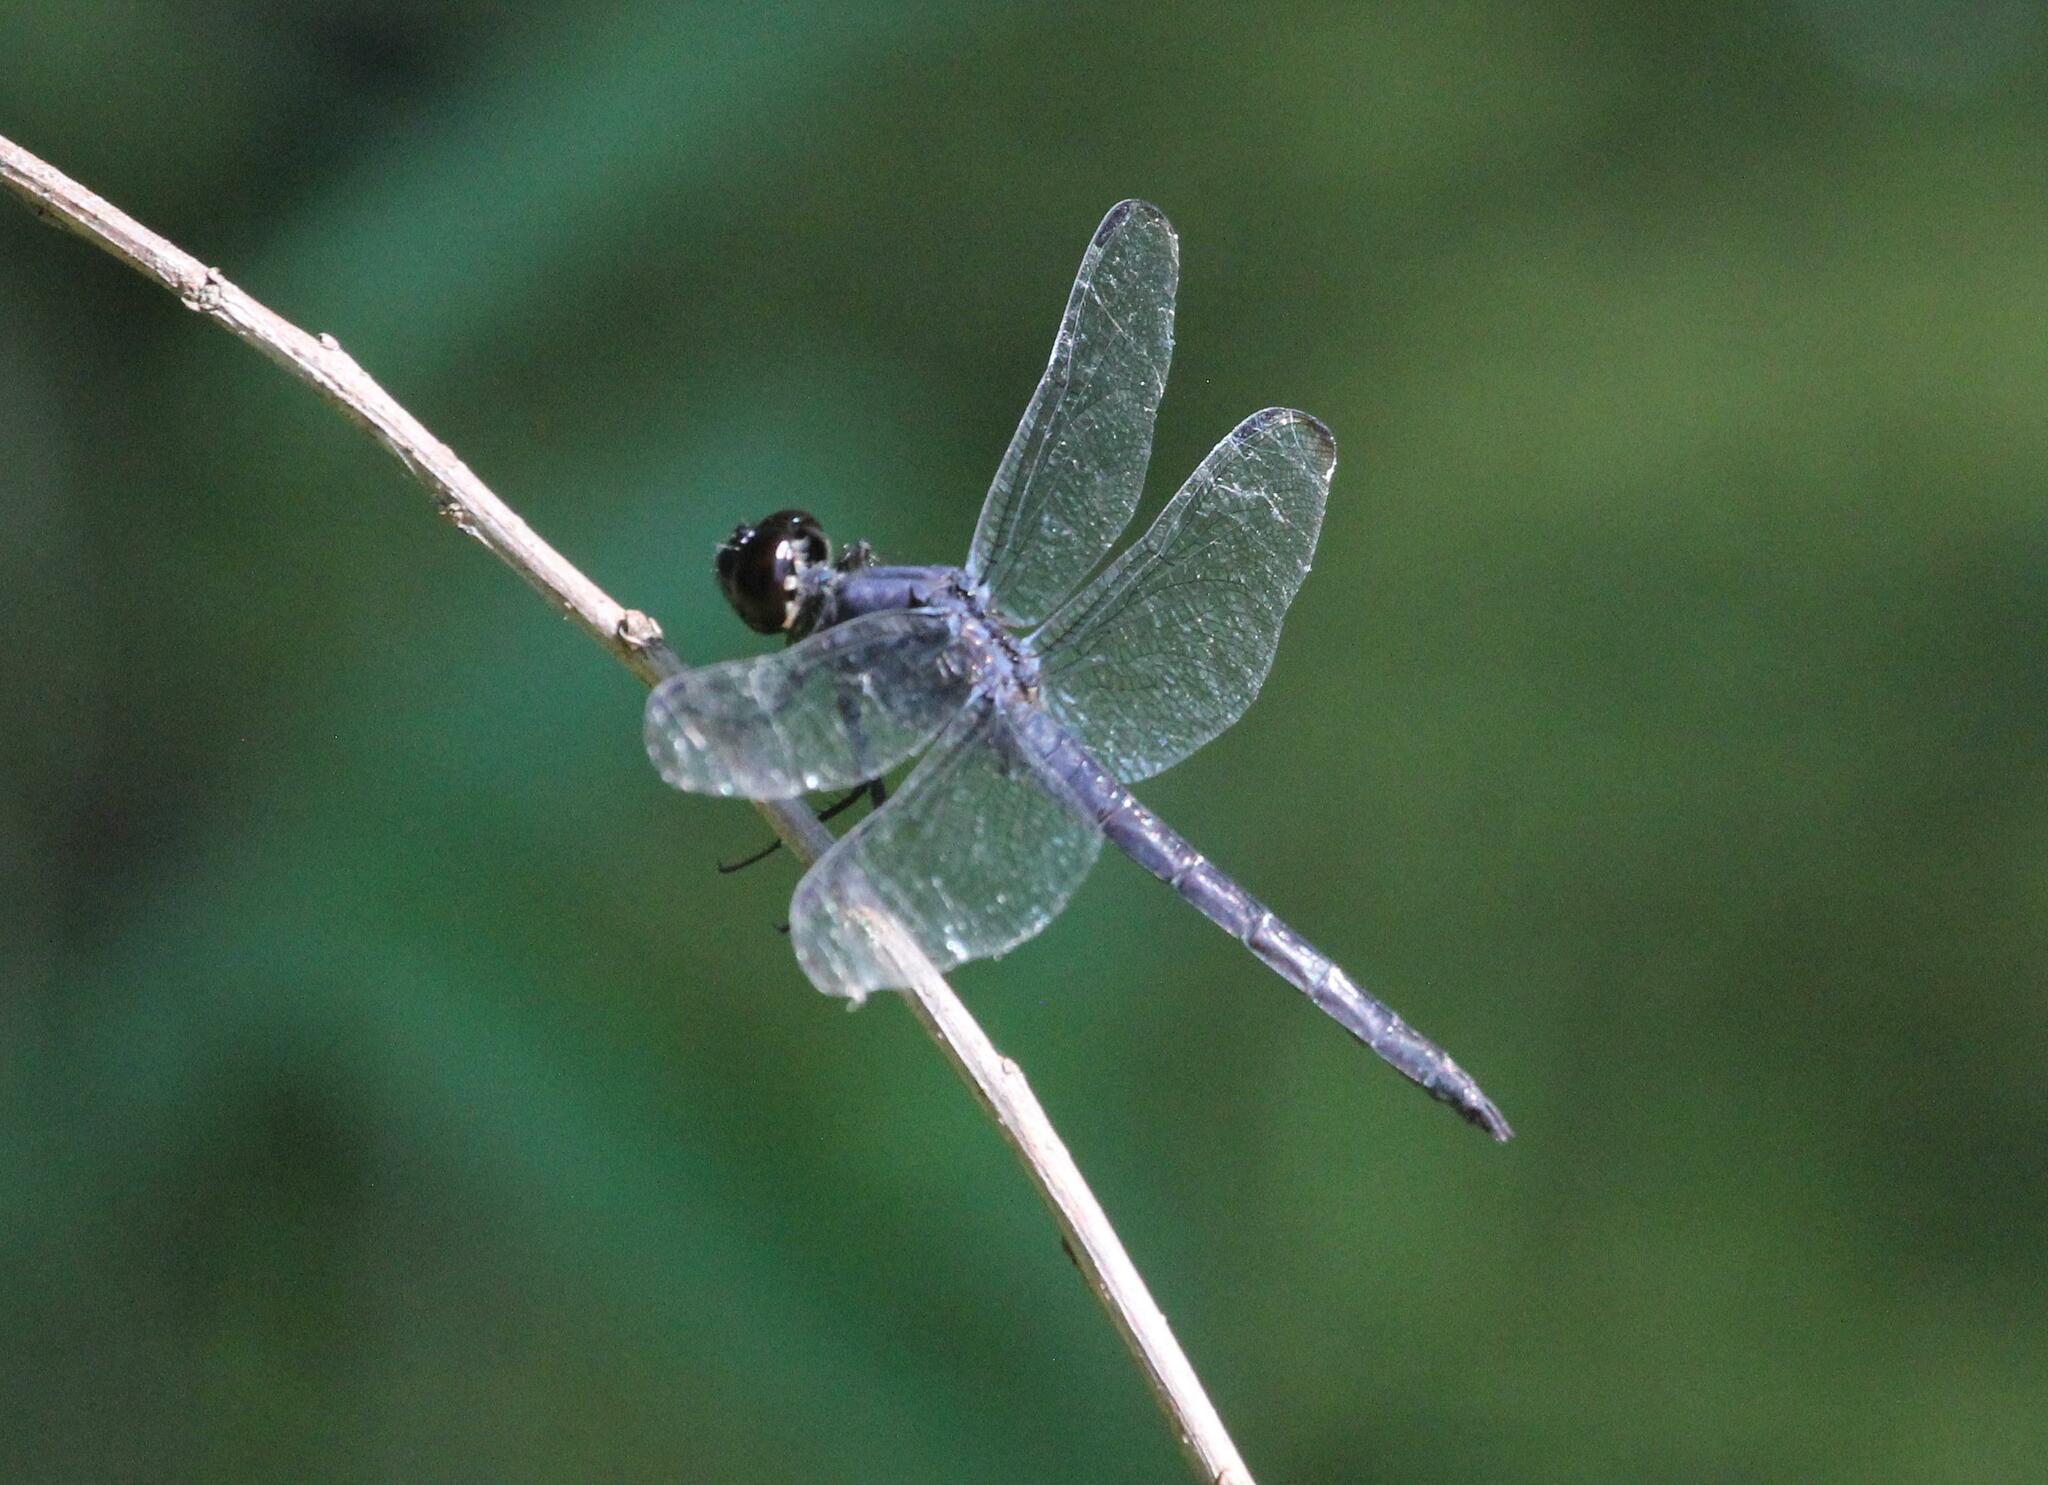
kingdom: Animalia
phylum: Arthropoda
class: Insecta
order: Odonata
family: Libellulidae
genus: Libellula
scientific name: Libellula incesta
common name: Slaty skimmer
